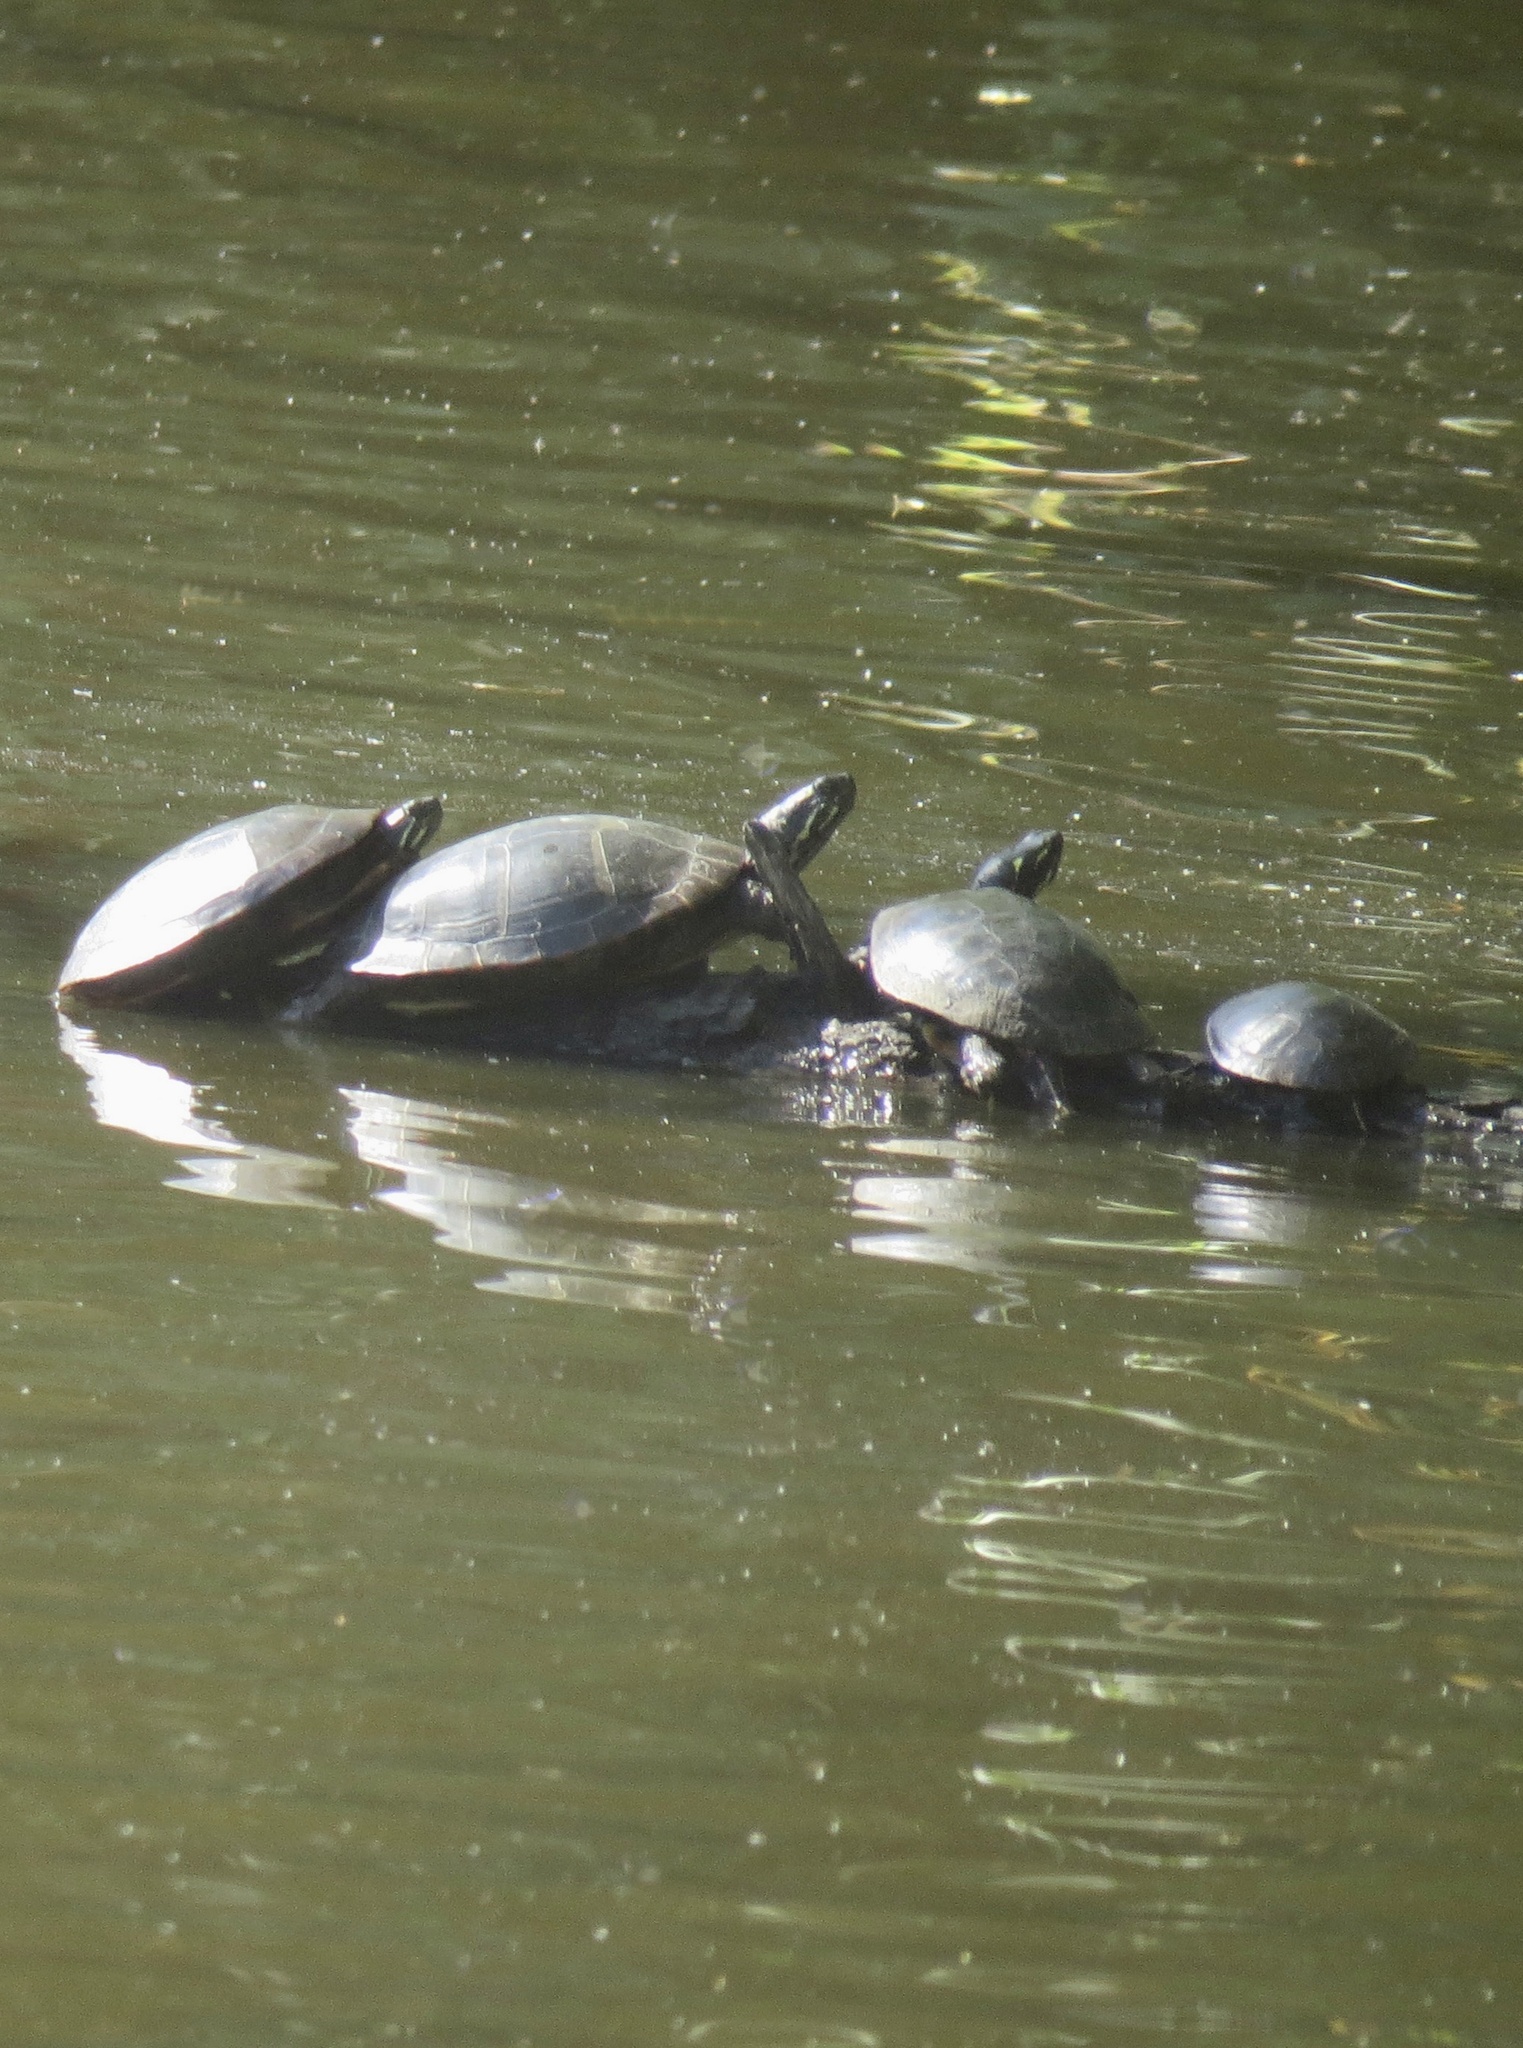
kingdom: Animalia
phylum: Chordata
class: Testudines
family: Emydidae
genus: Chrysemys
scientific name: Chrysemys picta
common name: Painted turtle
